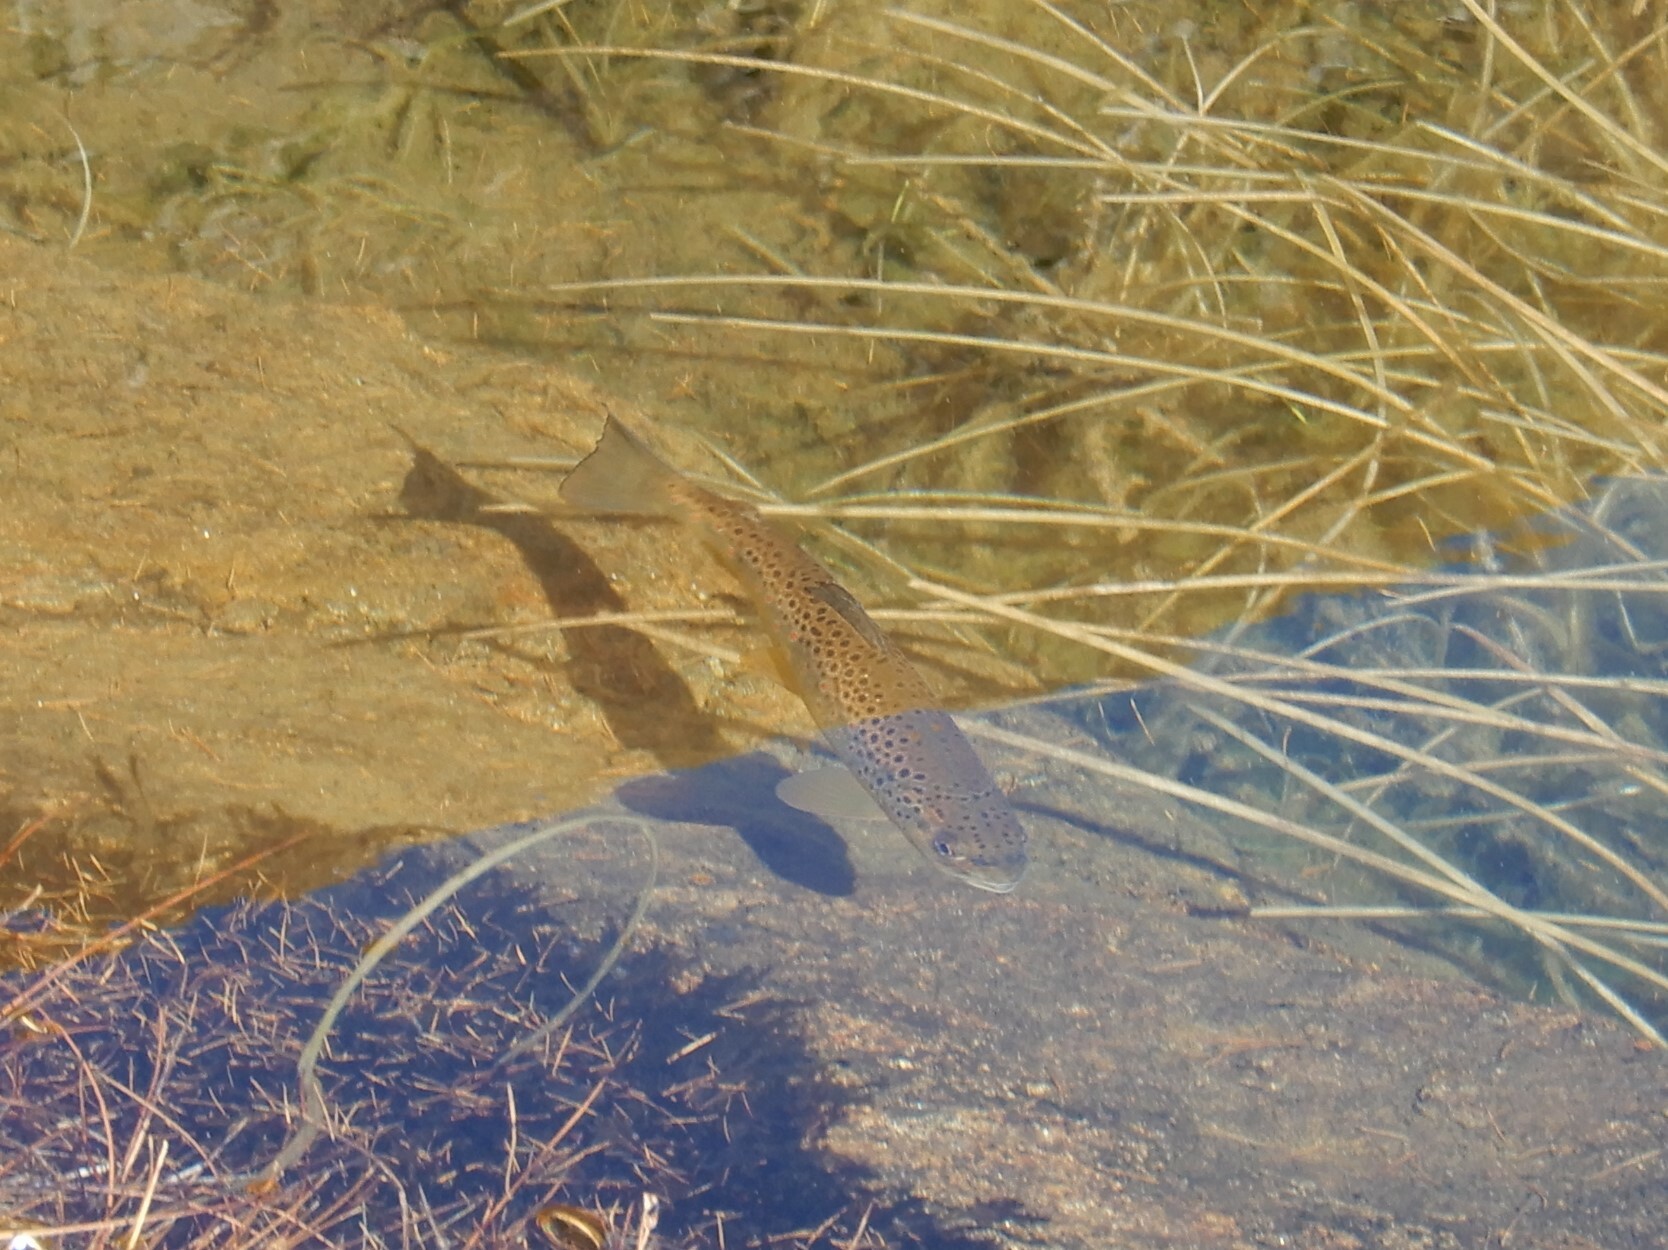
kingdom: Animalia
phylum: Chordata
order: Salmoniformes
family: Salmonidae
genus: Salmo
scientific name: Salmo trutta
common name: Brown trout
